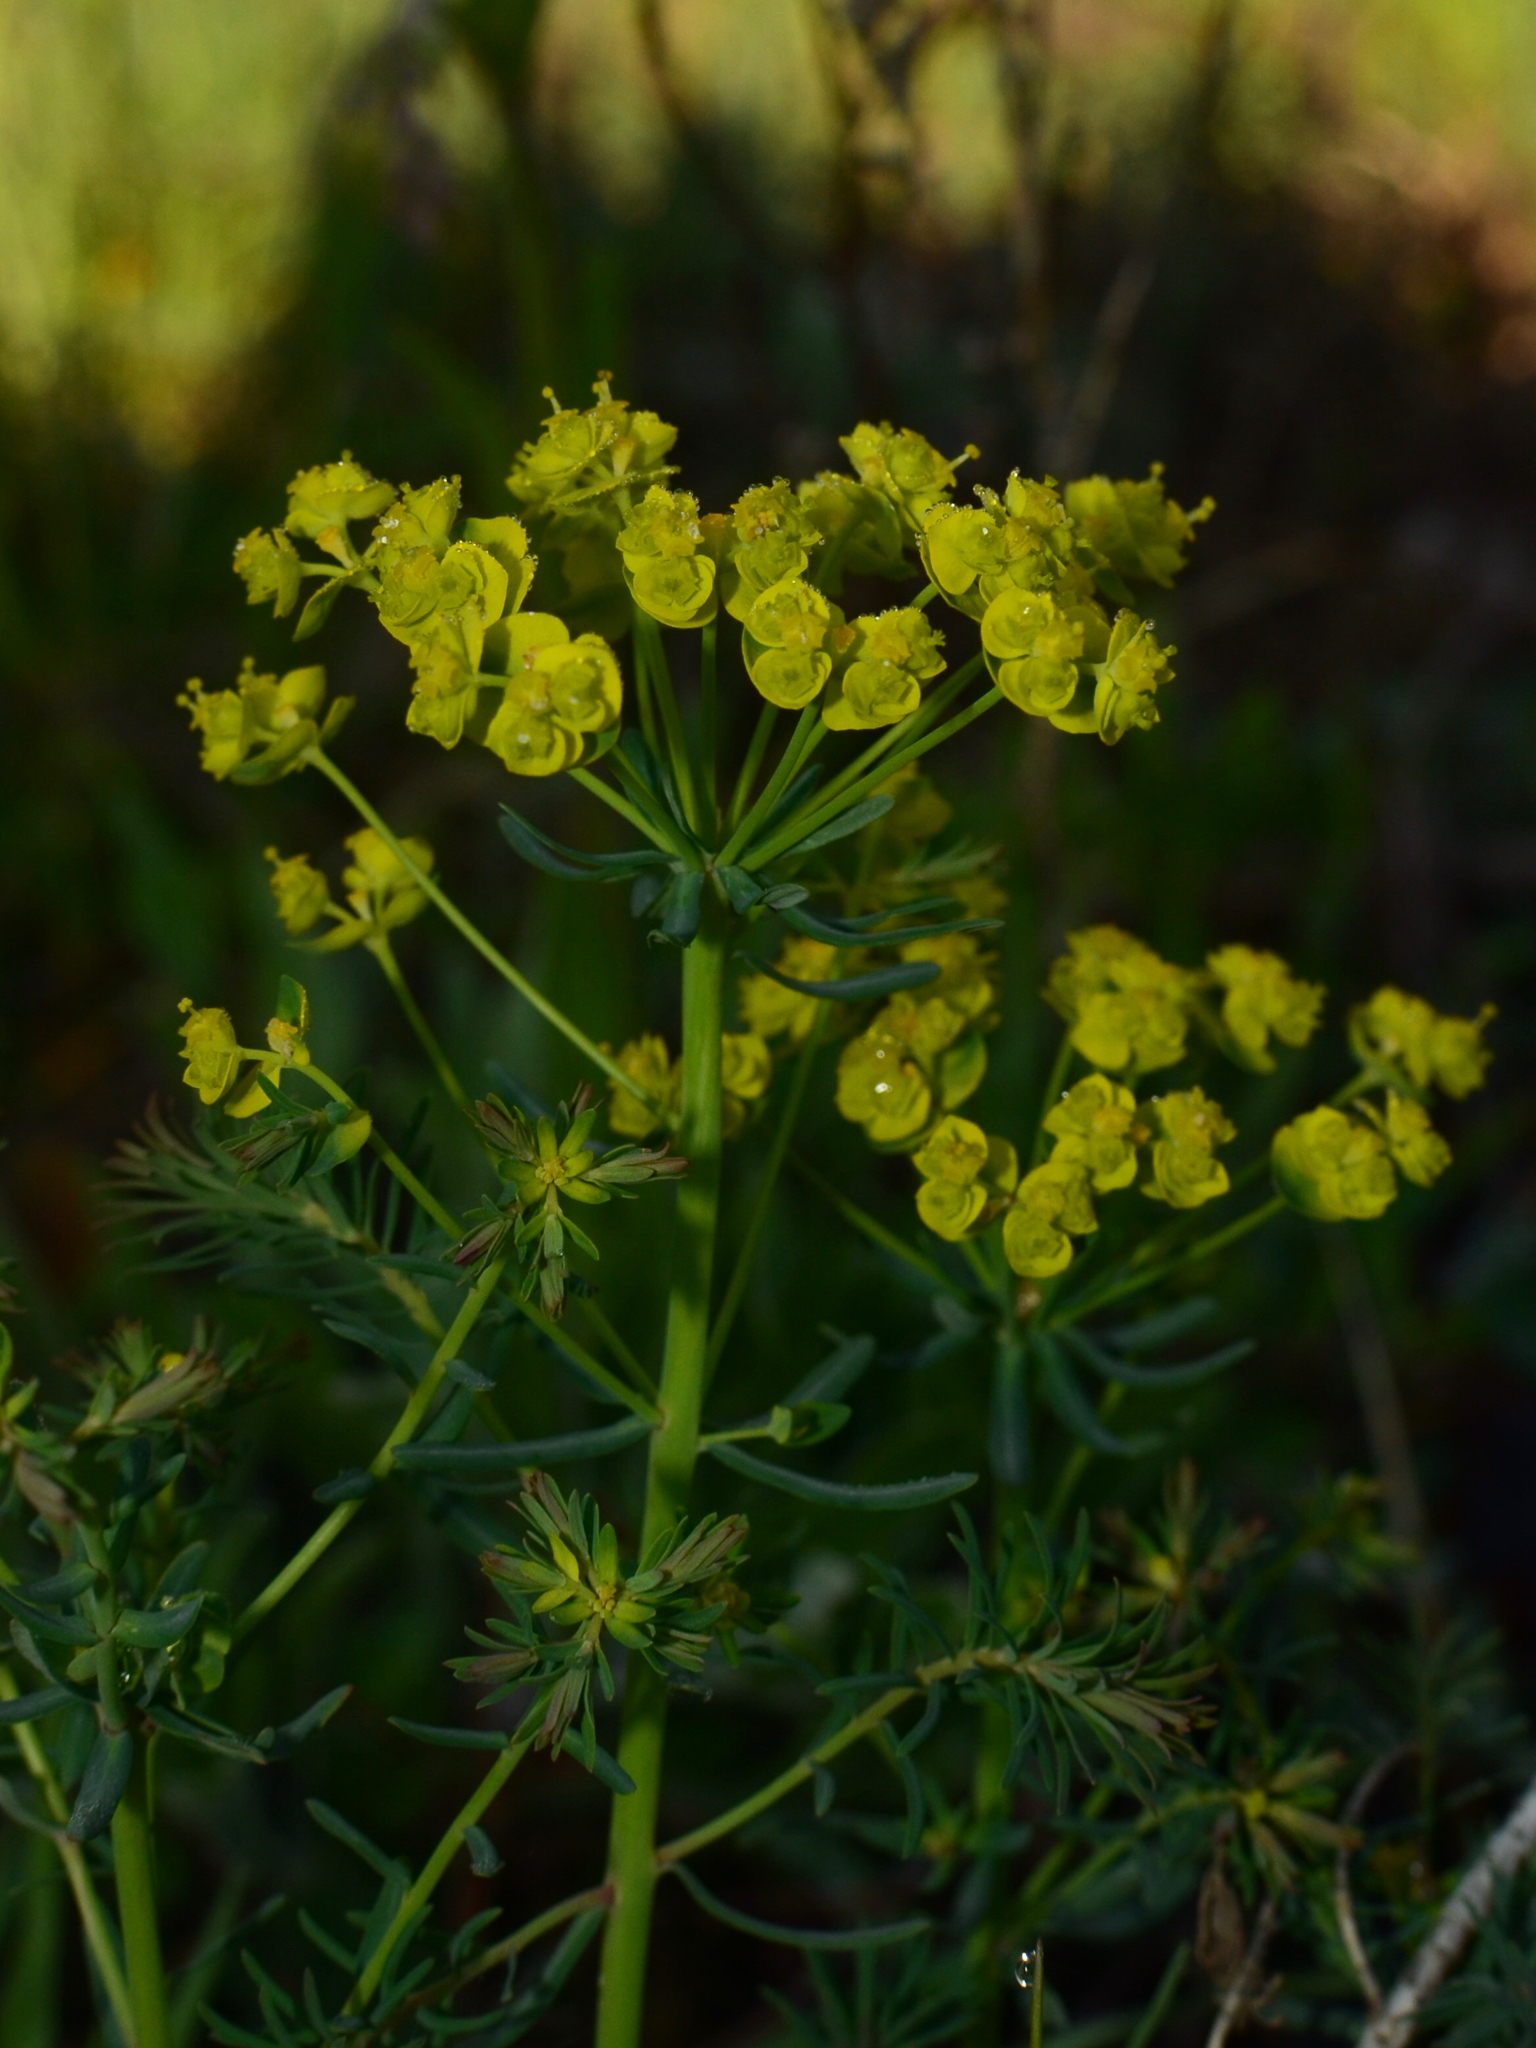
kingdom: Plantae
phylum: Tracheophyta
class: Magnoliopsida
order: Malpighiales
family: Euphorbiaceae
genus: Euphorbia
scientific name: Euphorbia cyparissias
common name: Cypress spurge
